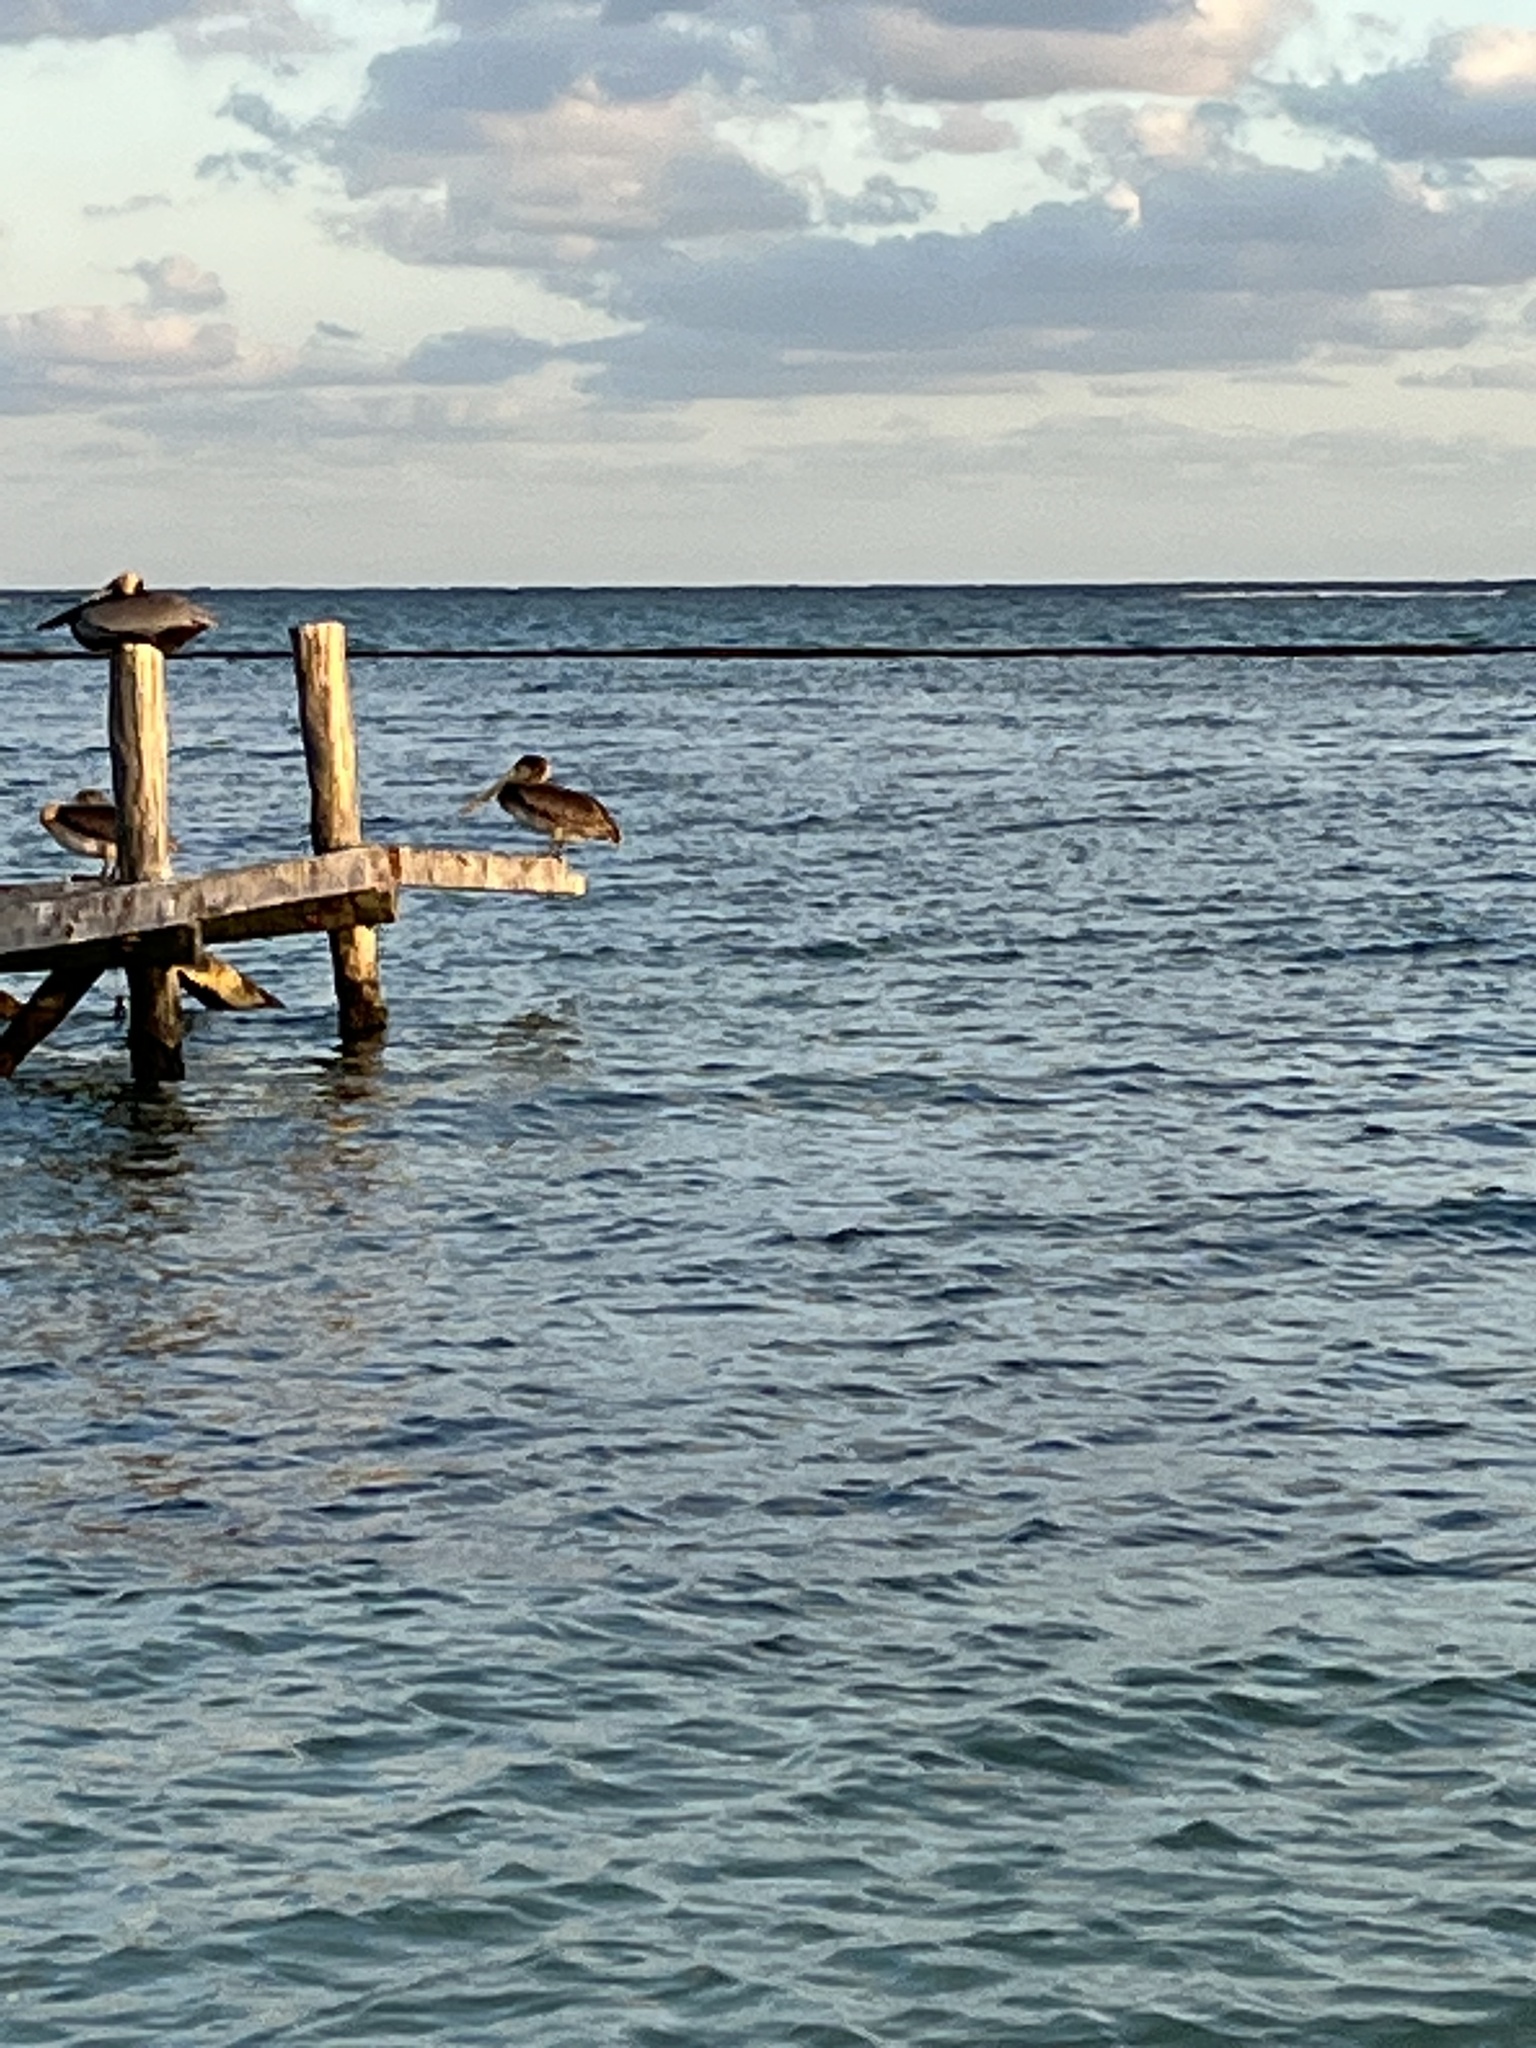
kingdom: Animalia
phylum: Chordata
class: Aves
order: Pelecaniformes
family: Pelecanidae
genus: Pelecanus
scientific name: Pelecanus occidentalis
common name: Brown pelican
